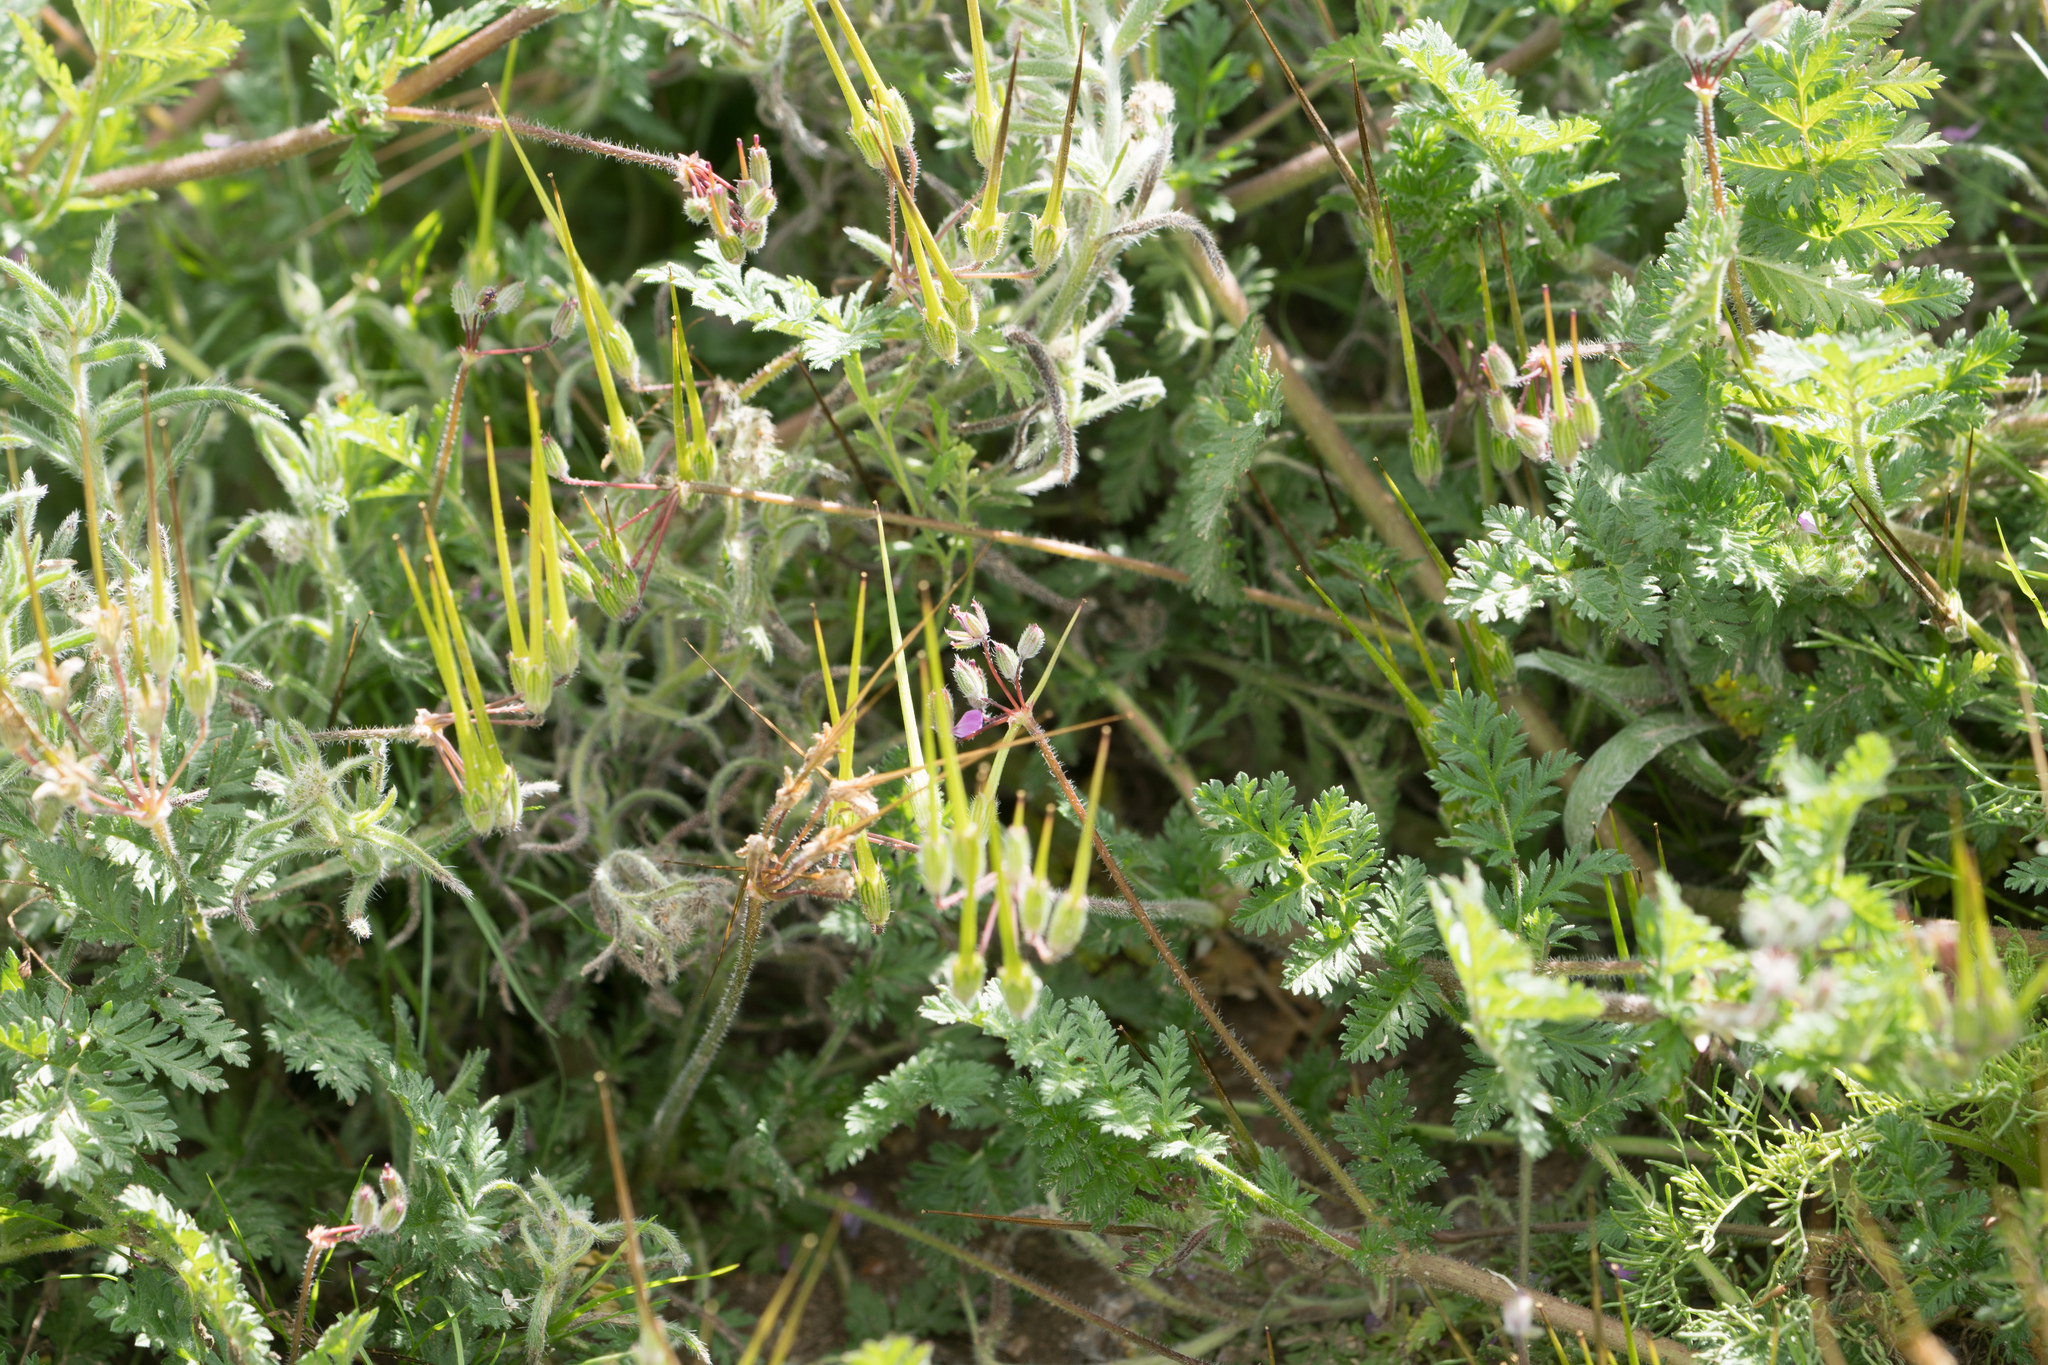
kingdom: Plantae
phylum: Tracheophyta
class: Magnoliopsida
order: Geraniales
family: Geraniaceae
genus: Erodium
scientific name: Erodium cicutarium
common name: Common stork's-bill
